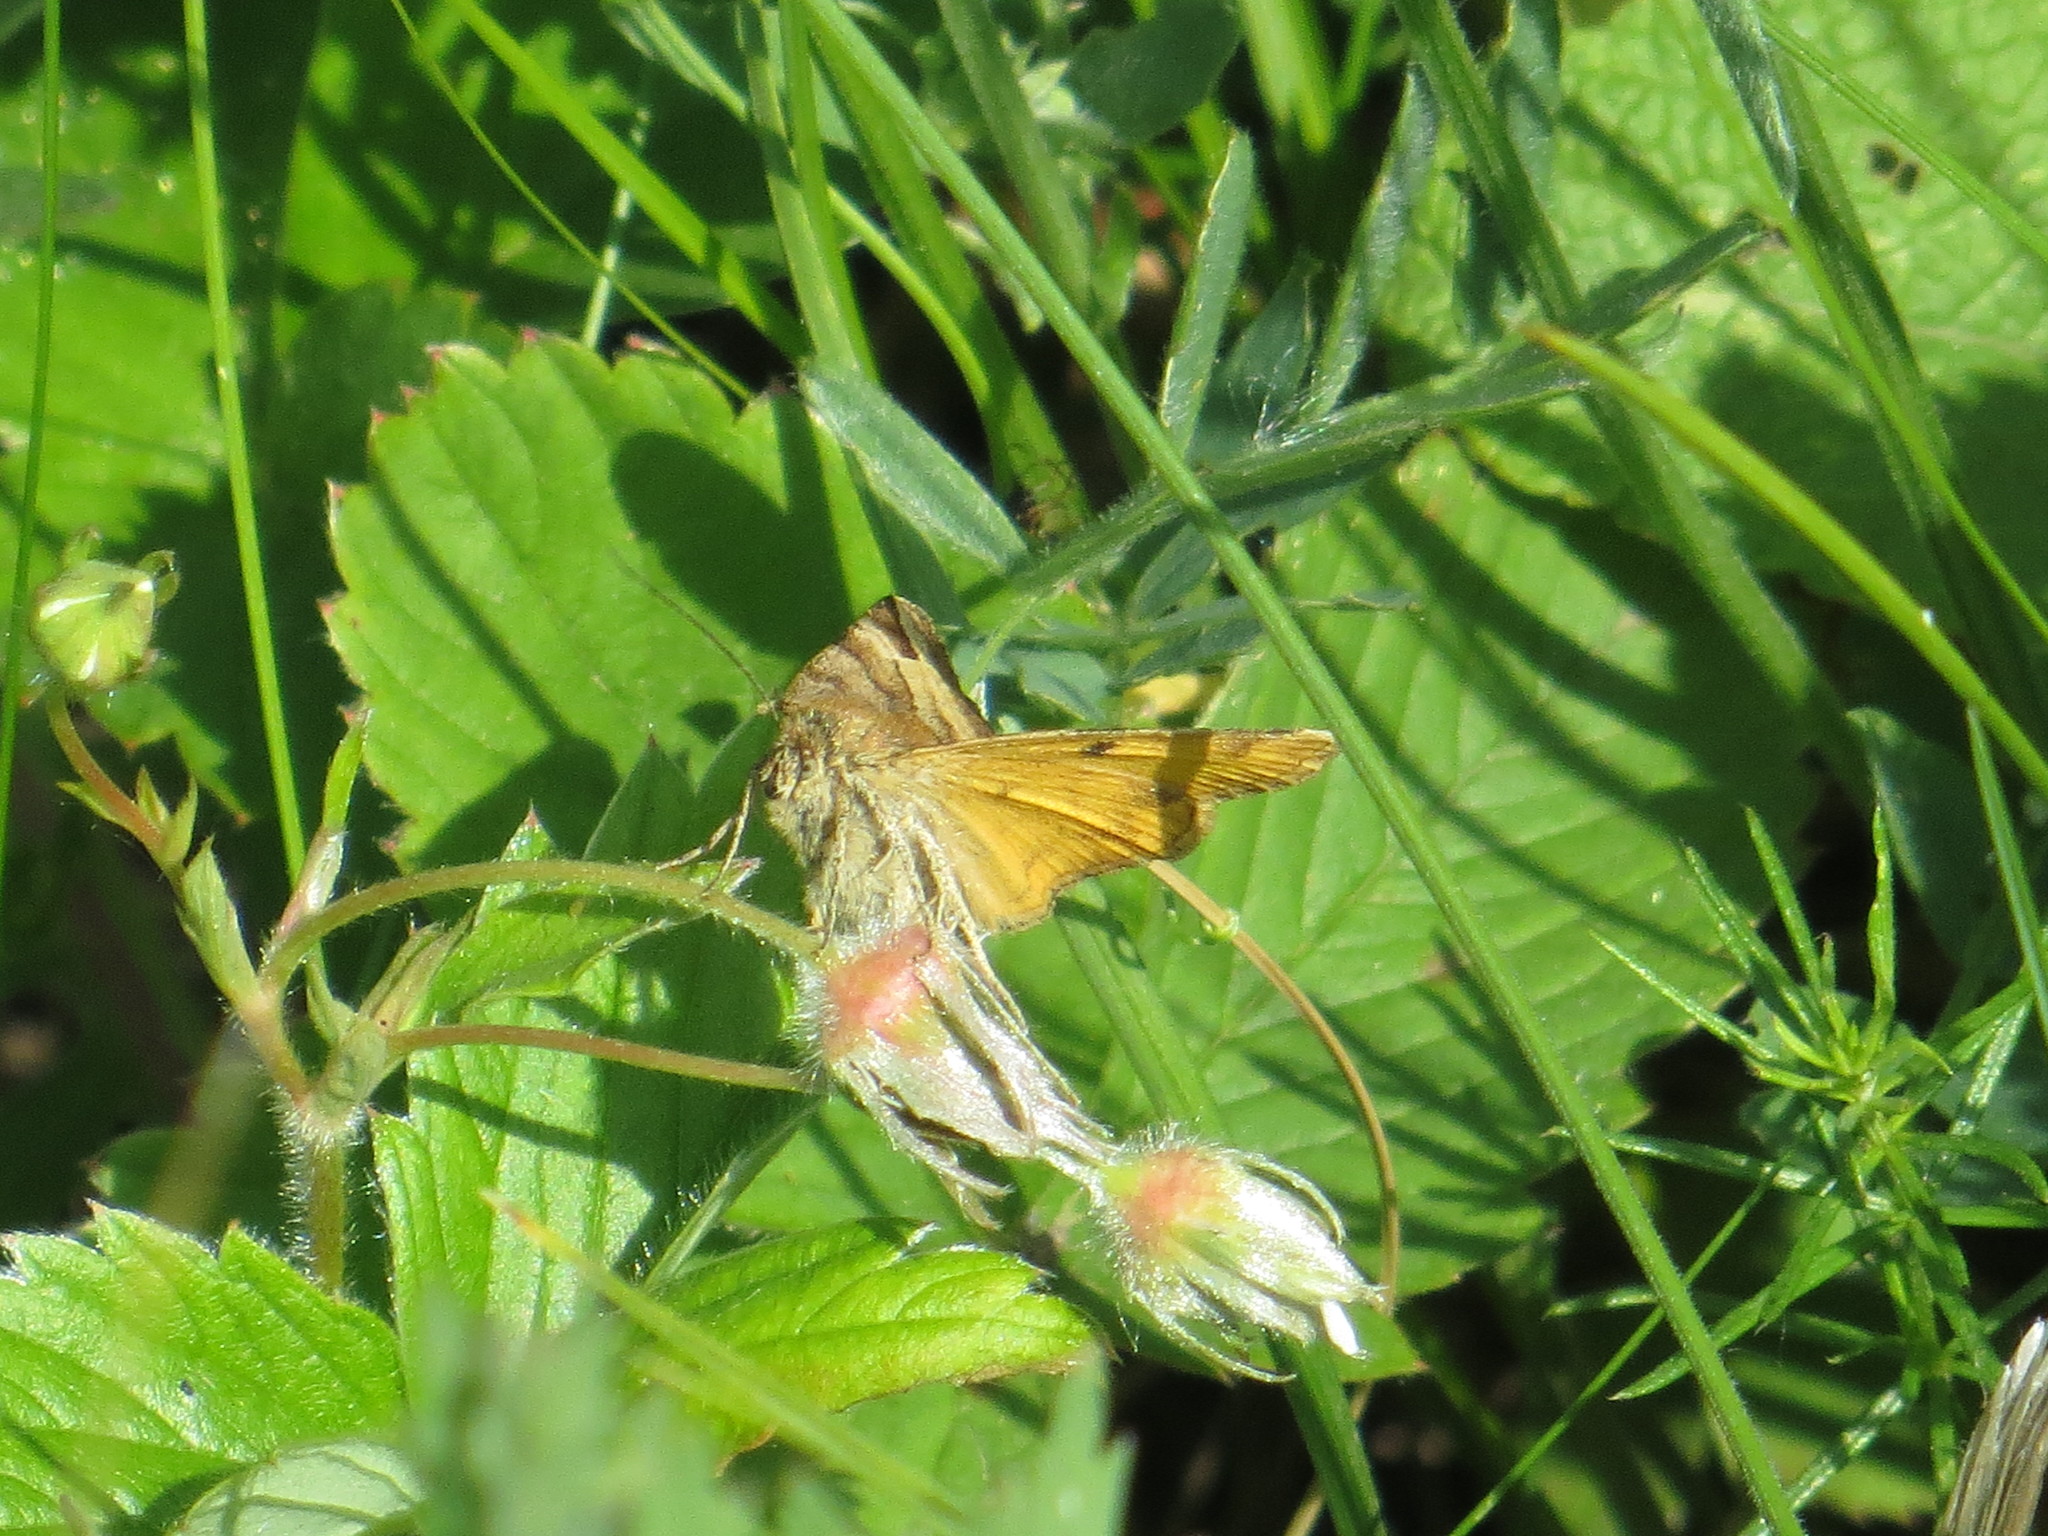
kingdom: Animalia
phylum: Arthropoda
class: Insecta
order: Lepidoptera
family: Erebidae
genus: Euclidia
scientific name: Euclidia glyphica
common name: Burnet companion
